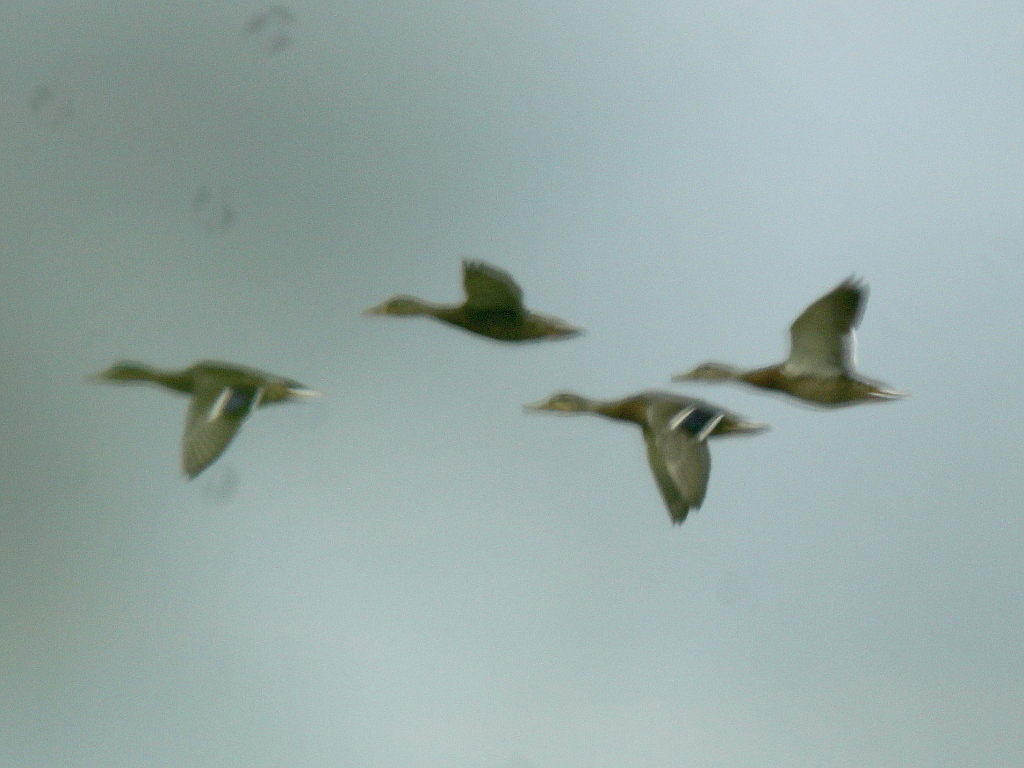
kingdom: Animalia
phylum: Chordata
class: Aves
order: Anseriformes
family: Anatidae
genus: Anas
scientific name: Anas platyrhynchos
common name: Mallard
